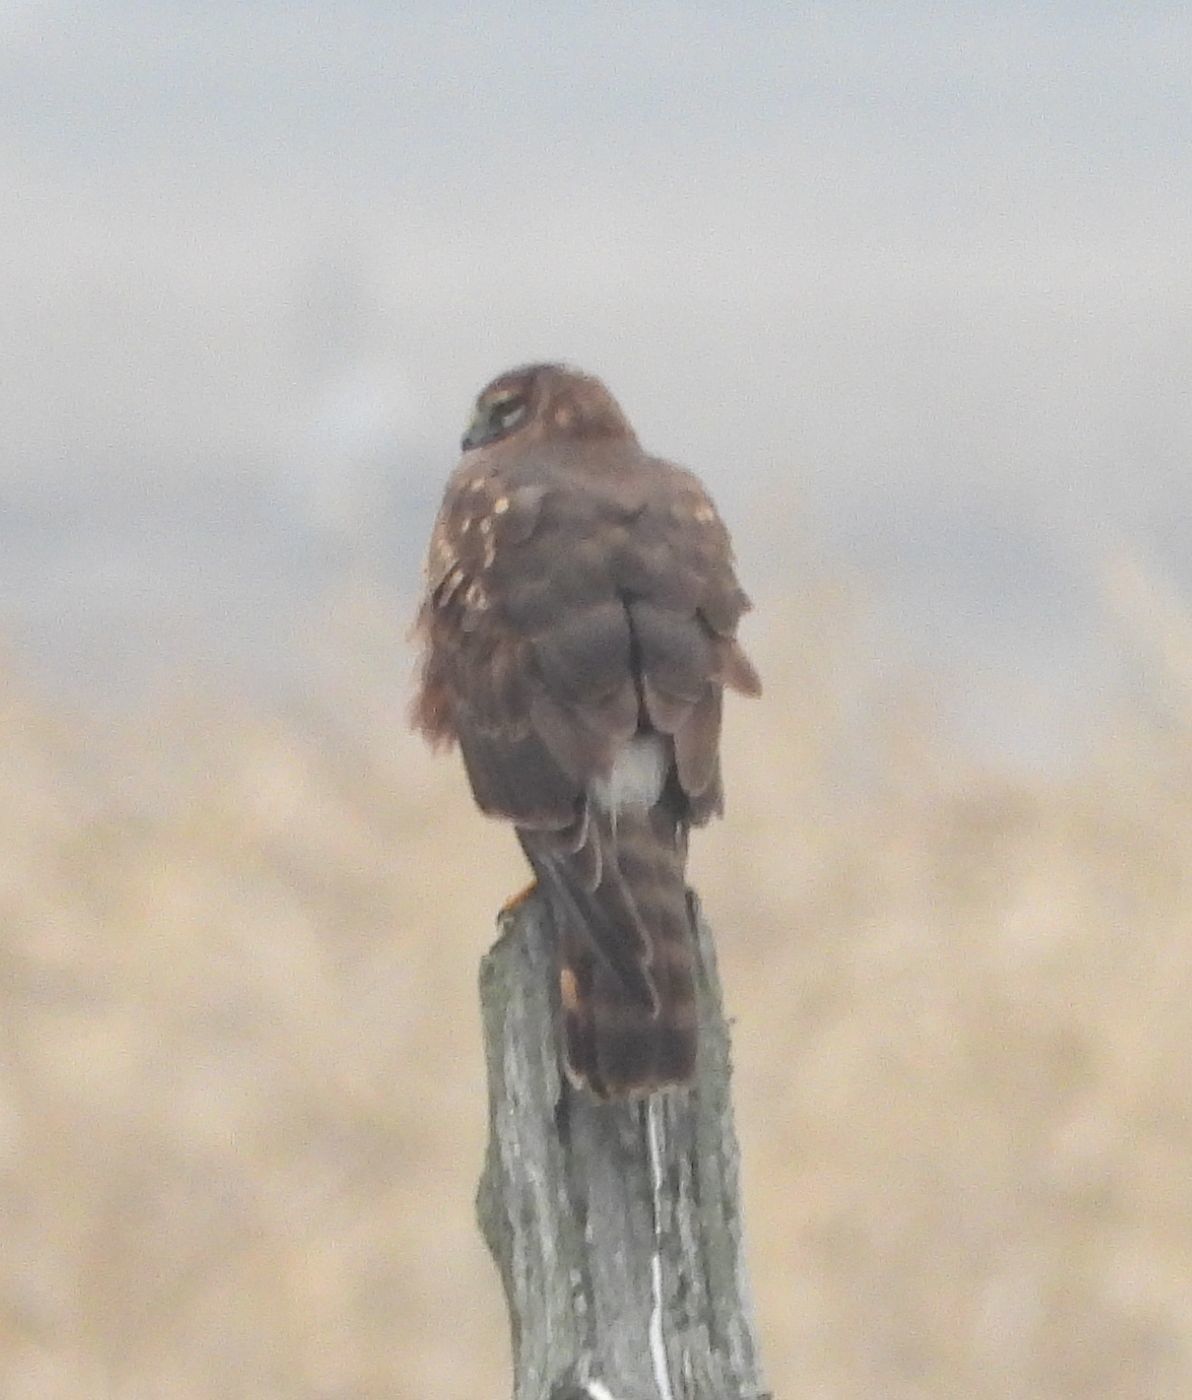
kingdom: Animalia
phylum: Chordata
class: Aves
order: Accipitriformes
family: Accipitridae
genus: Circus
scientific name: Circus cyaneus
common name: Hen harrier
